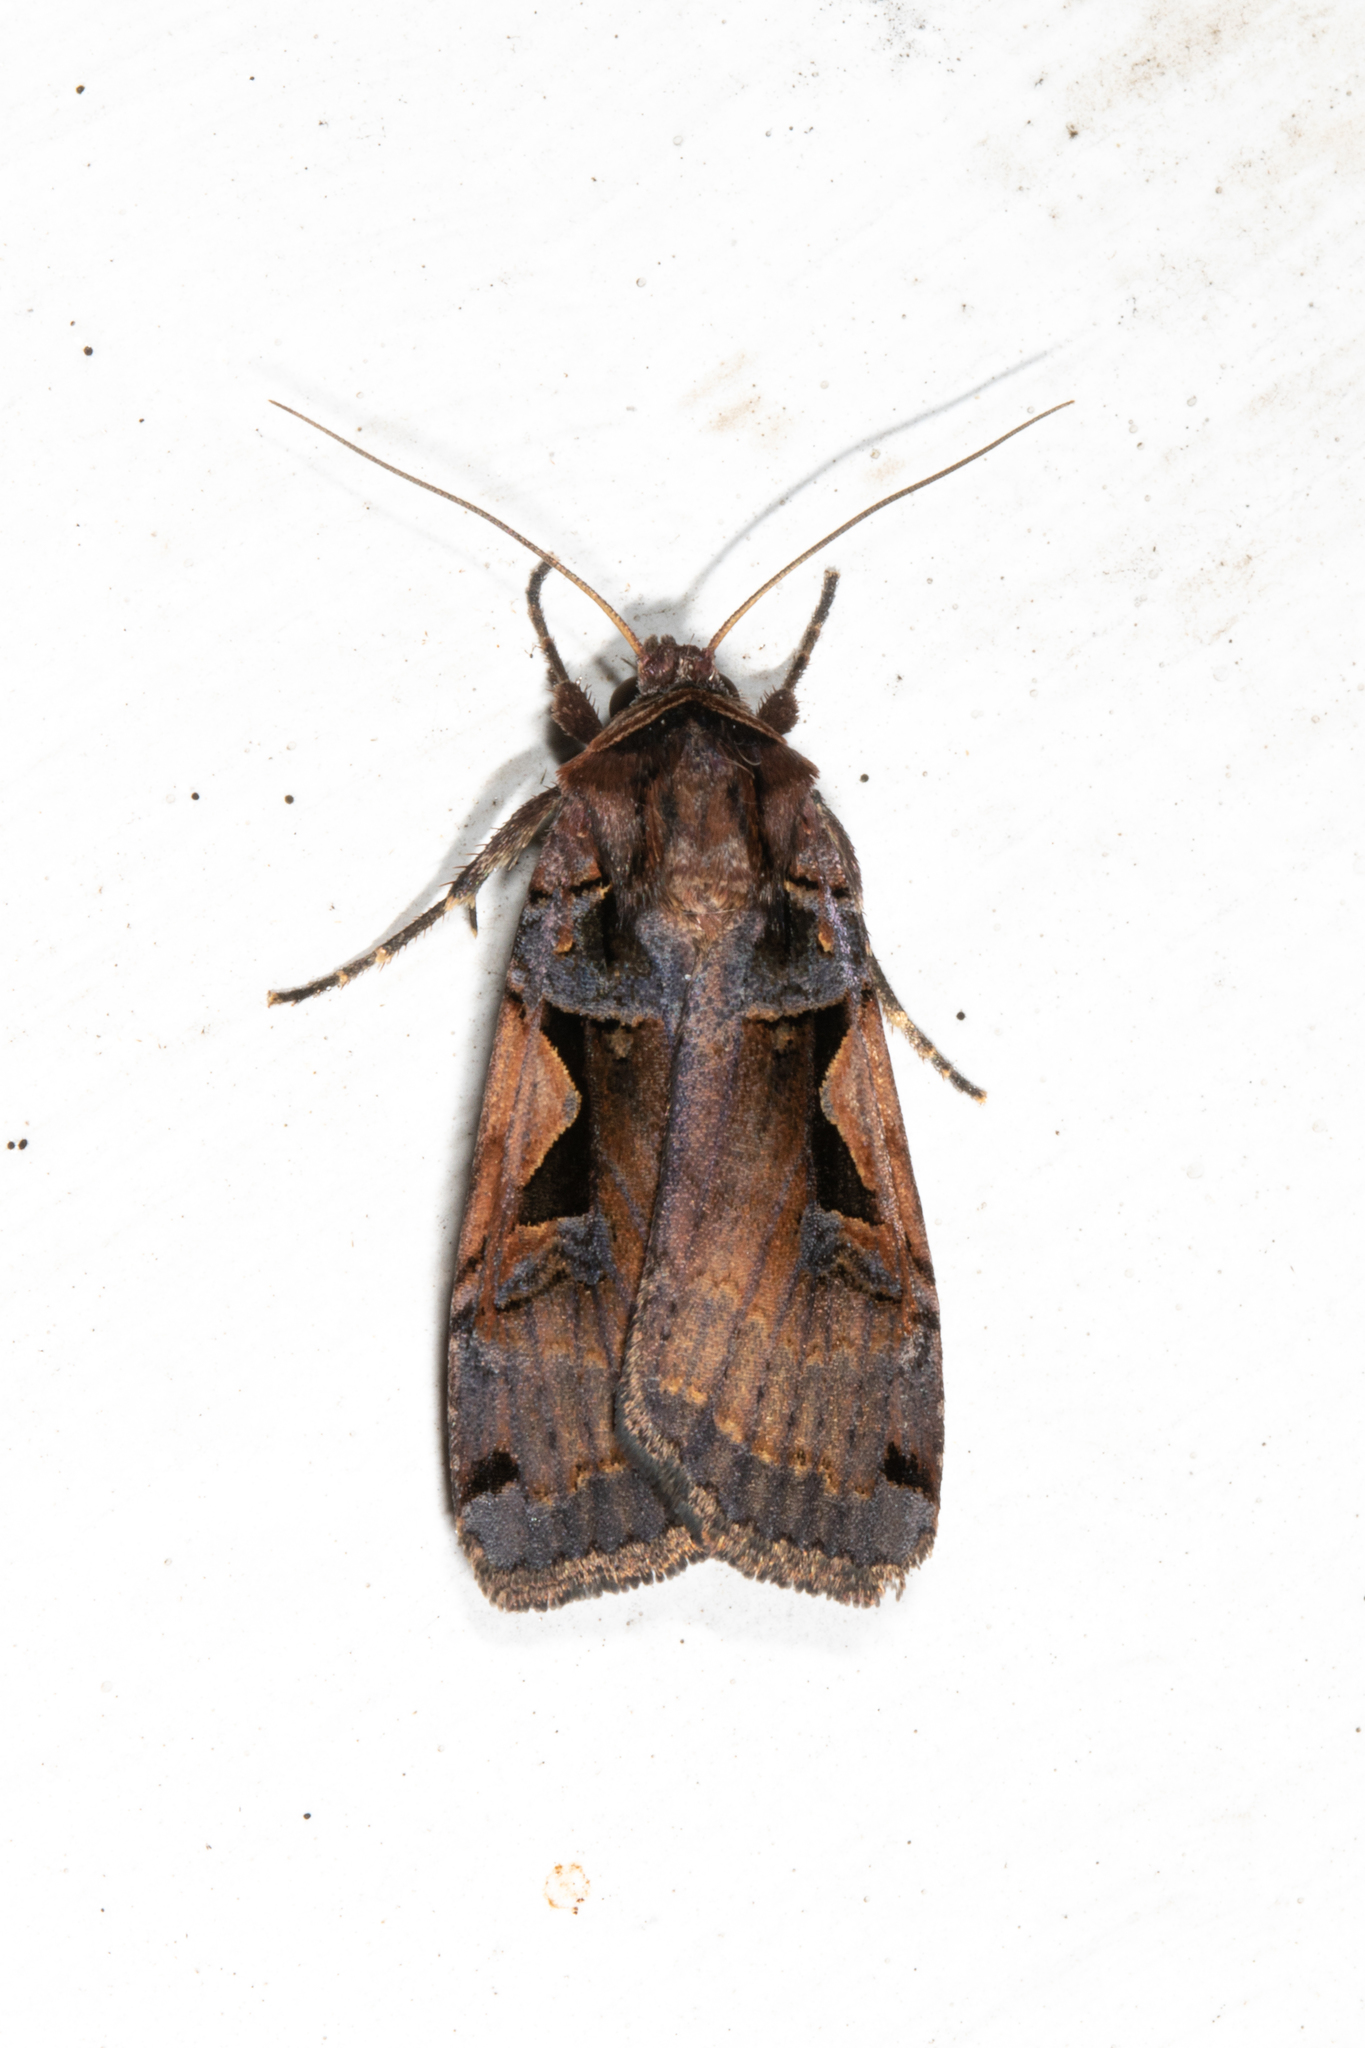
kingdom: Animalia
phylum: Arthropoda
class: Insecta
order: Lepidoptera
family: Noctuidae
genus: Xestia
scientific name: Xestia c-nigrum
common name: Setaceous hebrew character
